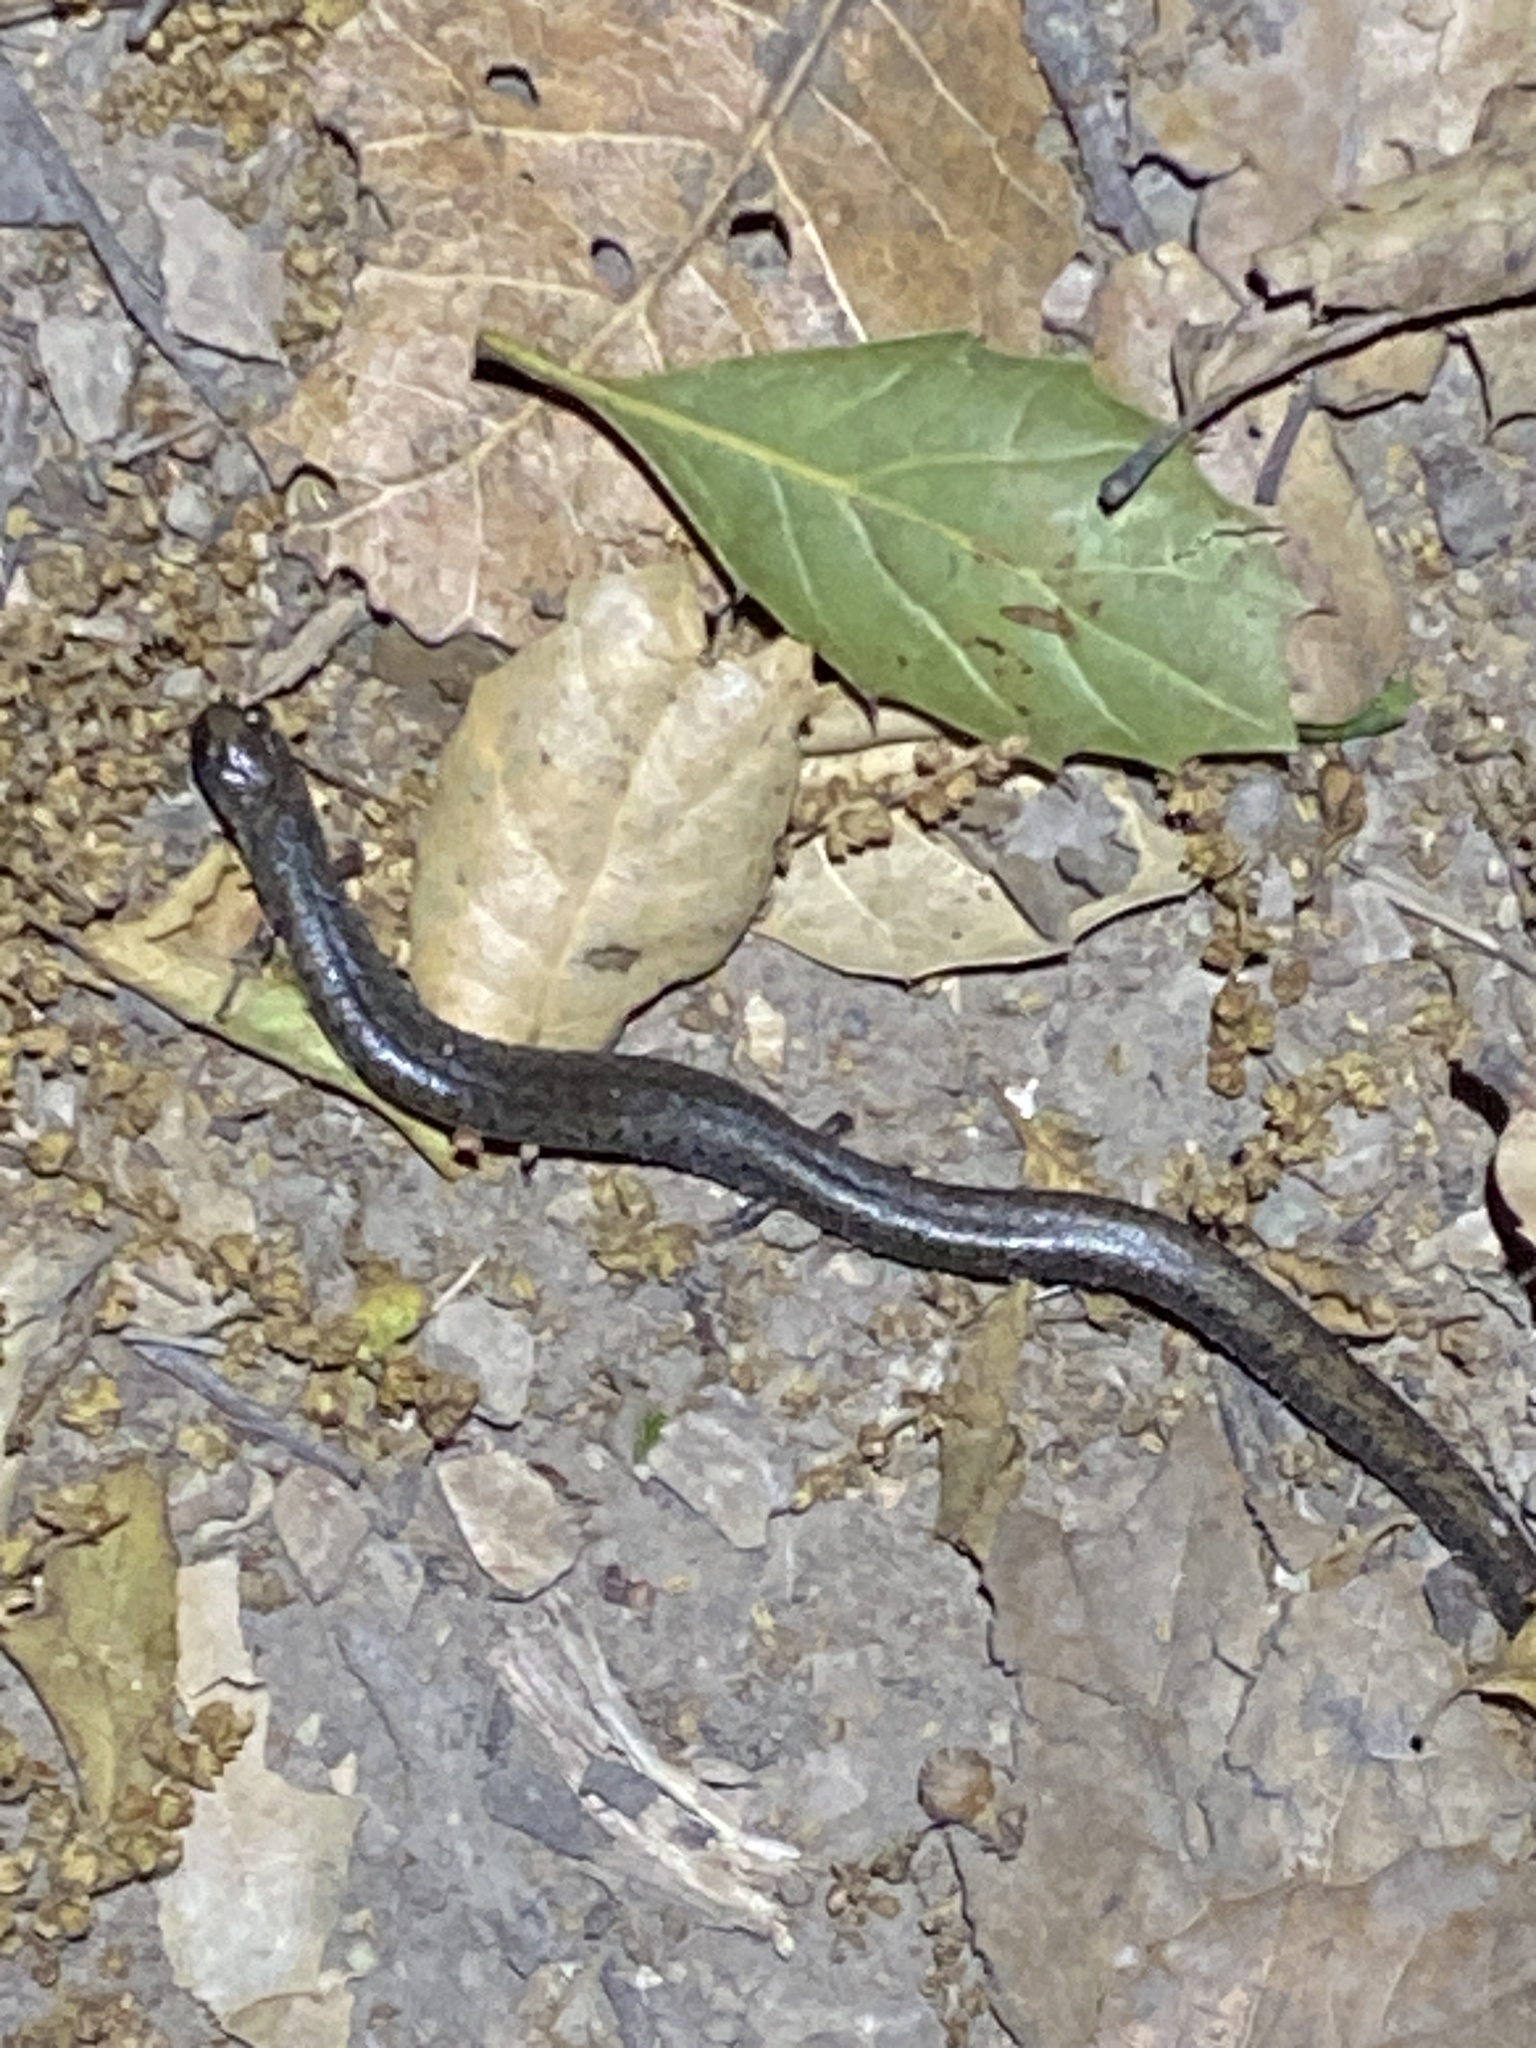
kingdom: Animalia
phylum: Chordata
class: Amphibia
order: Caudata
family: Plethodontidae
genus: Batrachoseps
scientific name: Batrachoseps attenuatus
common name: California slender salamander
